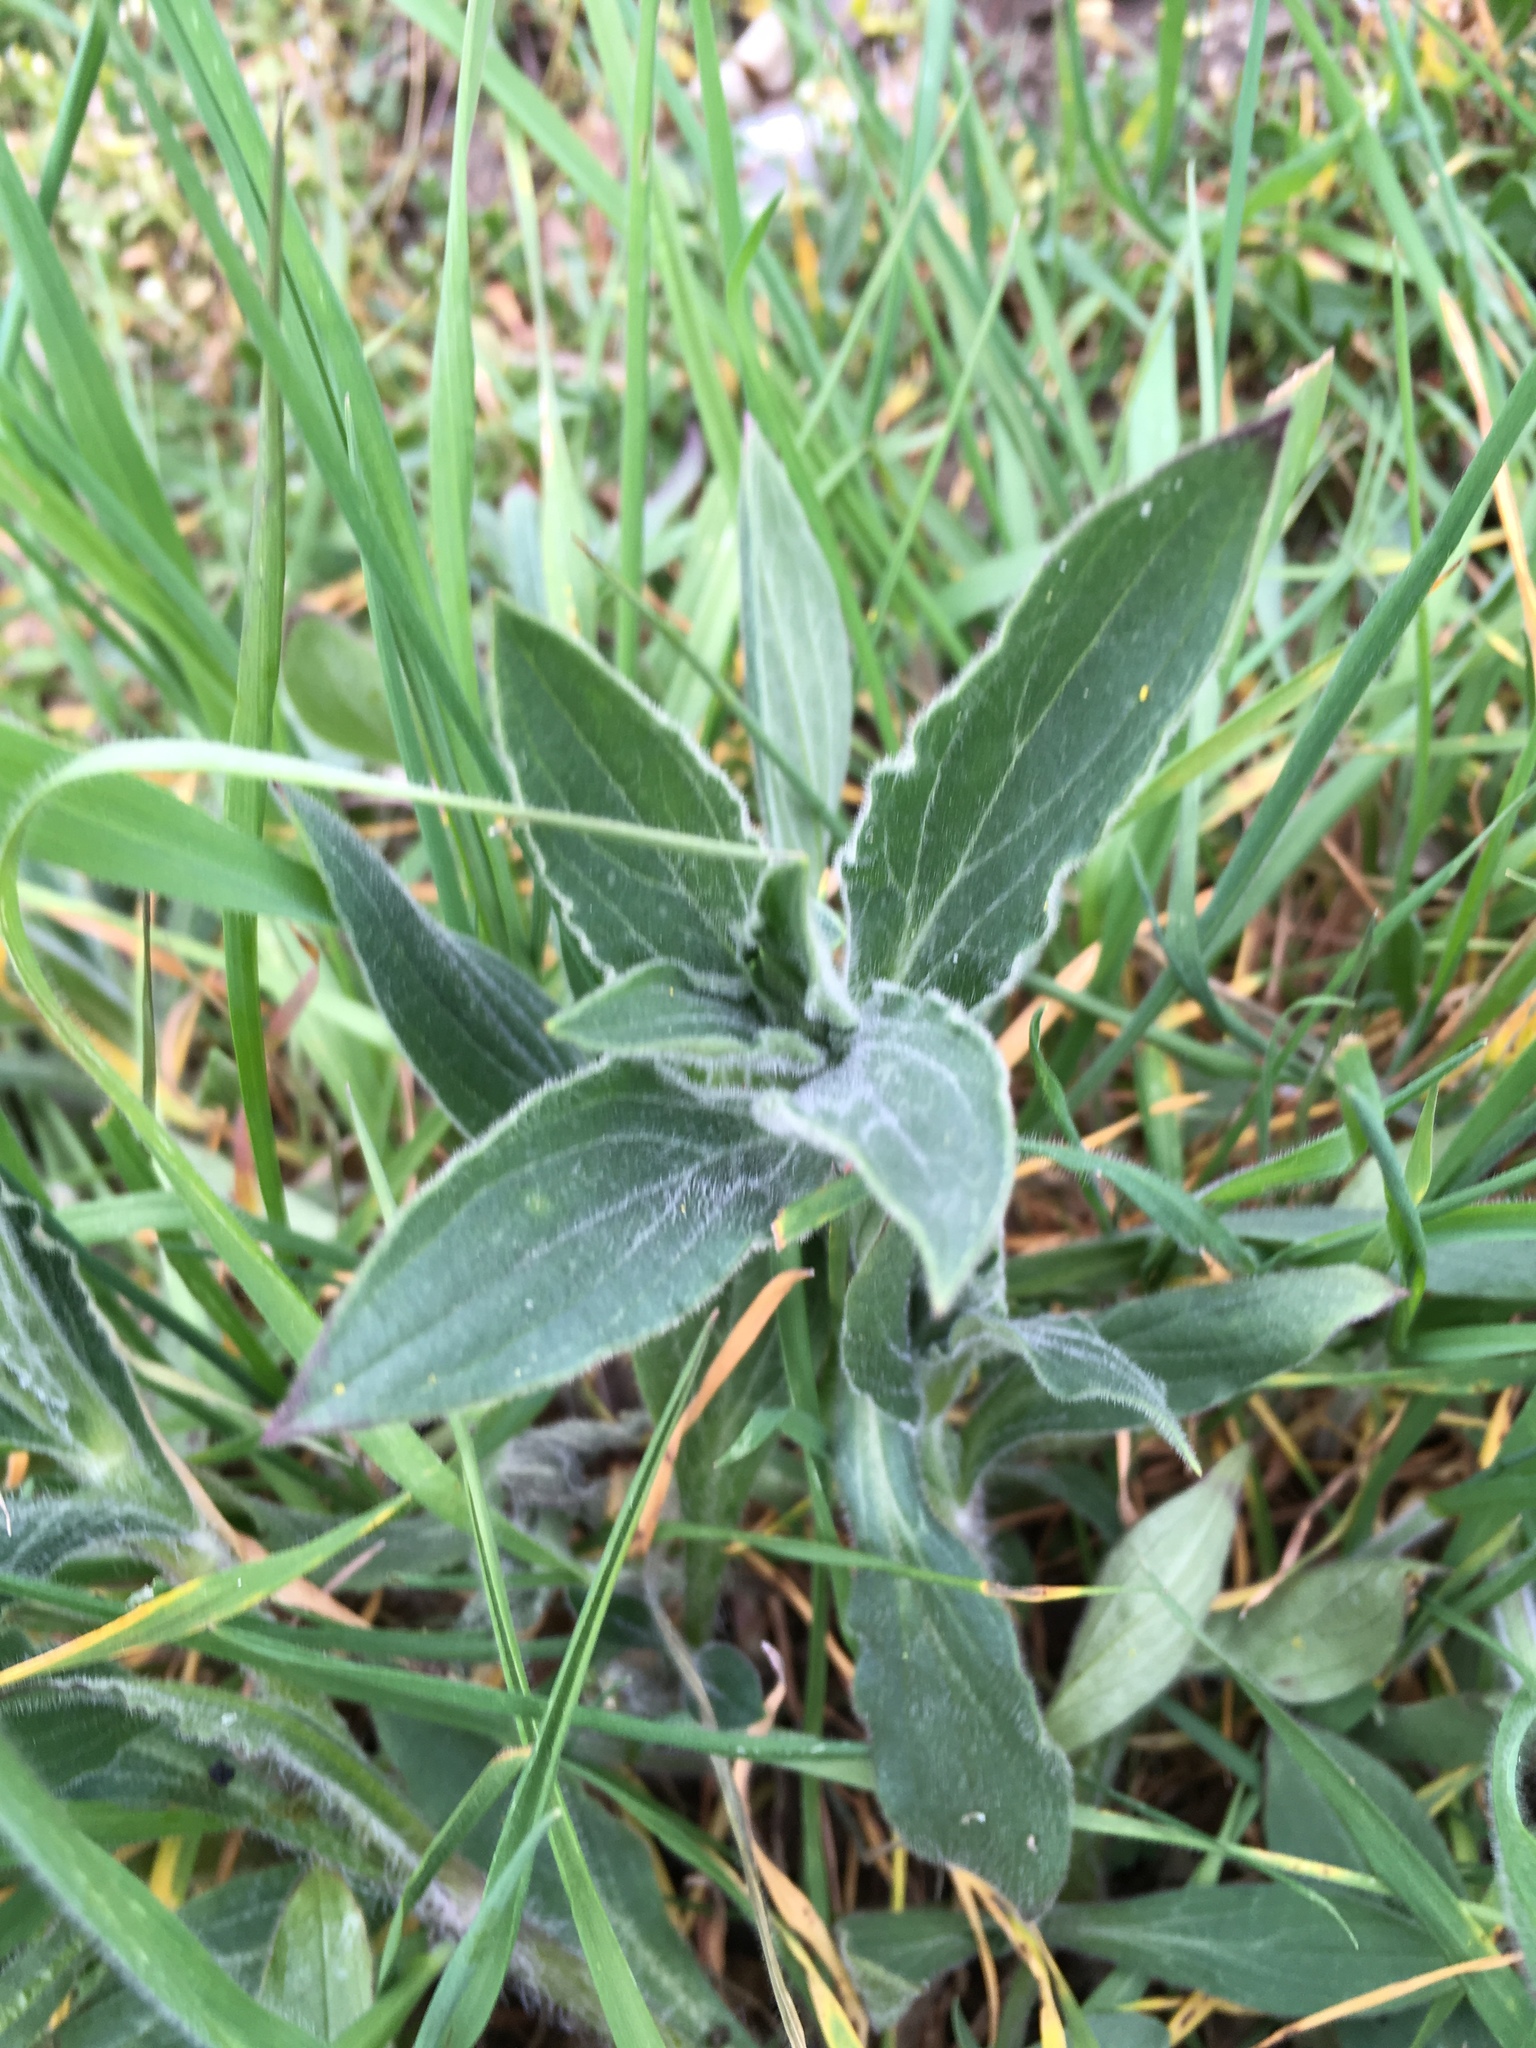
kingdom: Plantae
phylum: Tracheophyta
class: Magnoliopsida
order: Caryophyllales
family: Caryophyllaceae
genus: Silene
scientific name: Silene latifolia
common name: White campion
